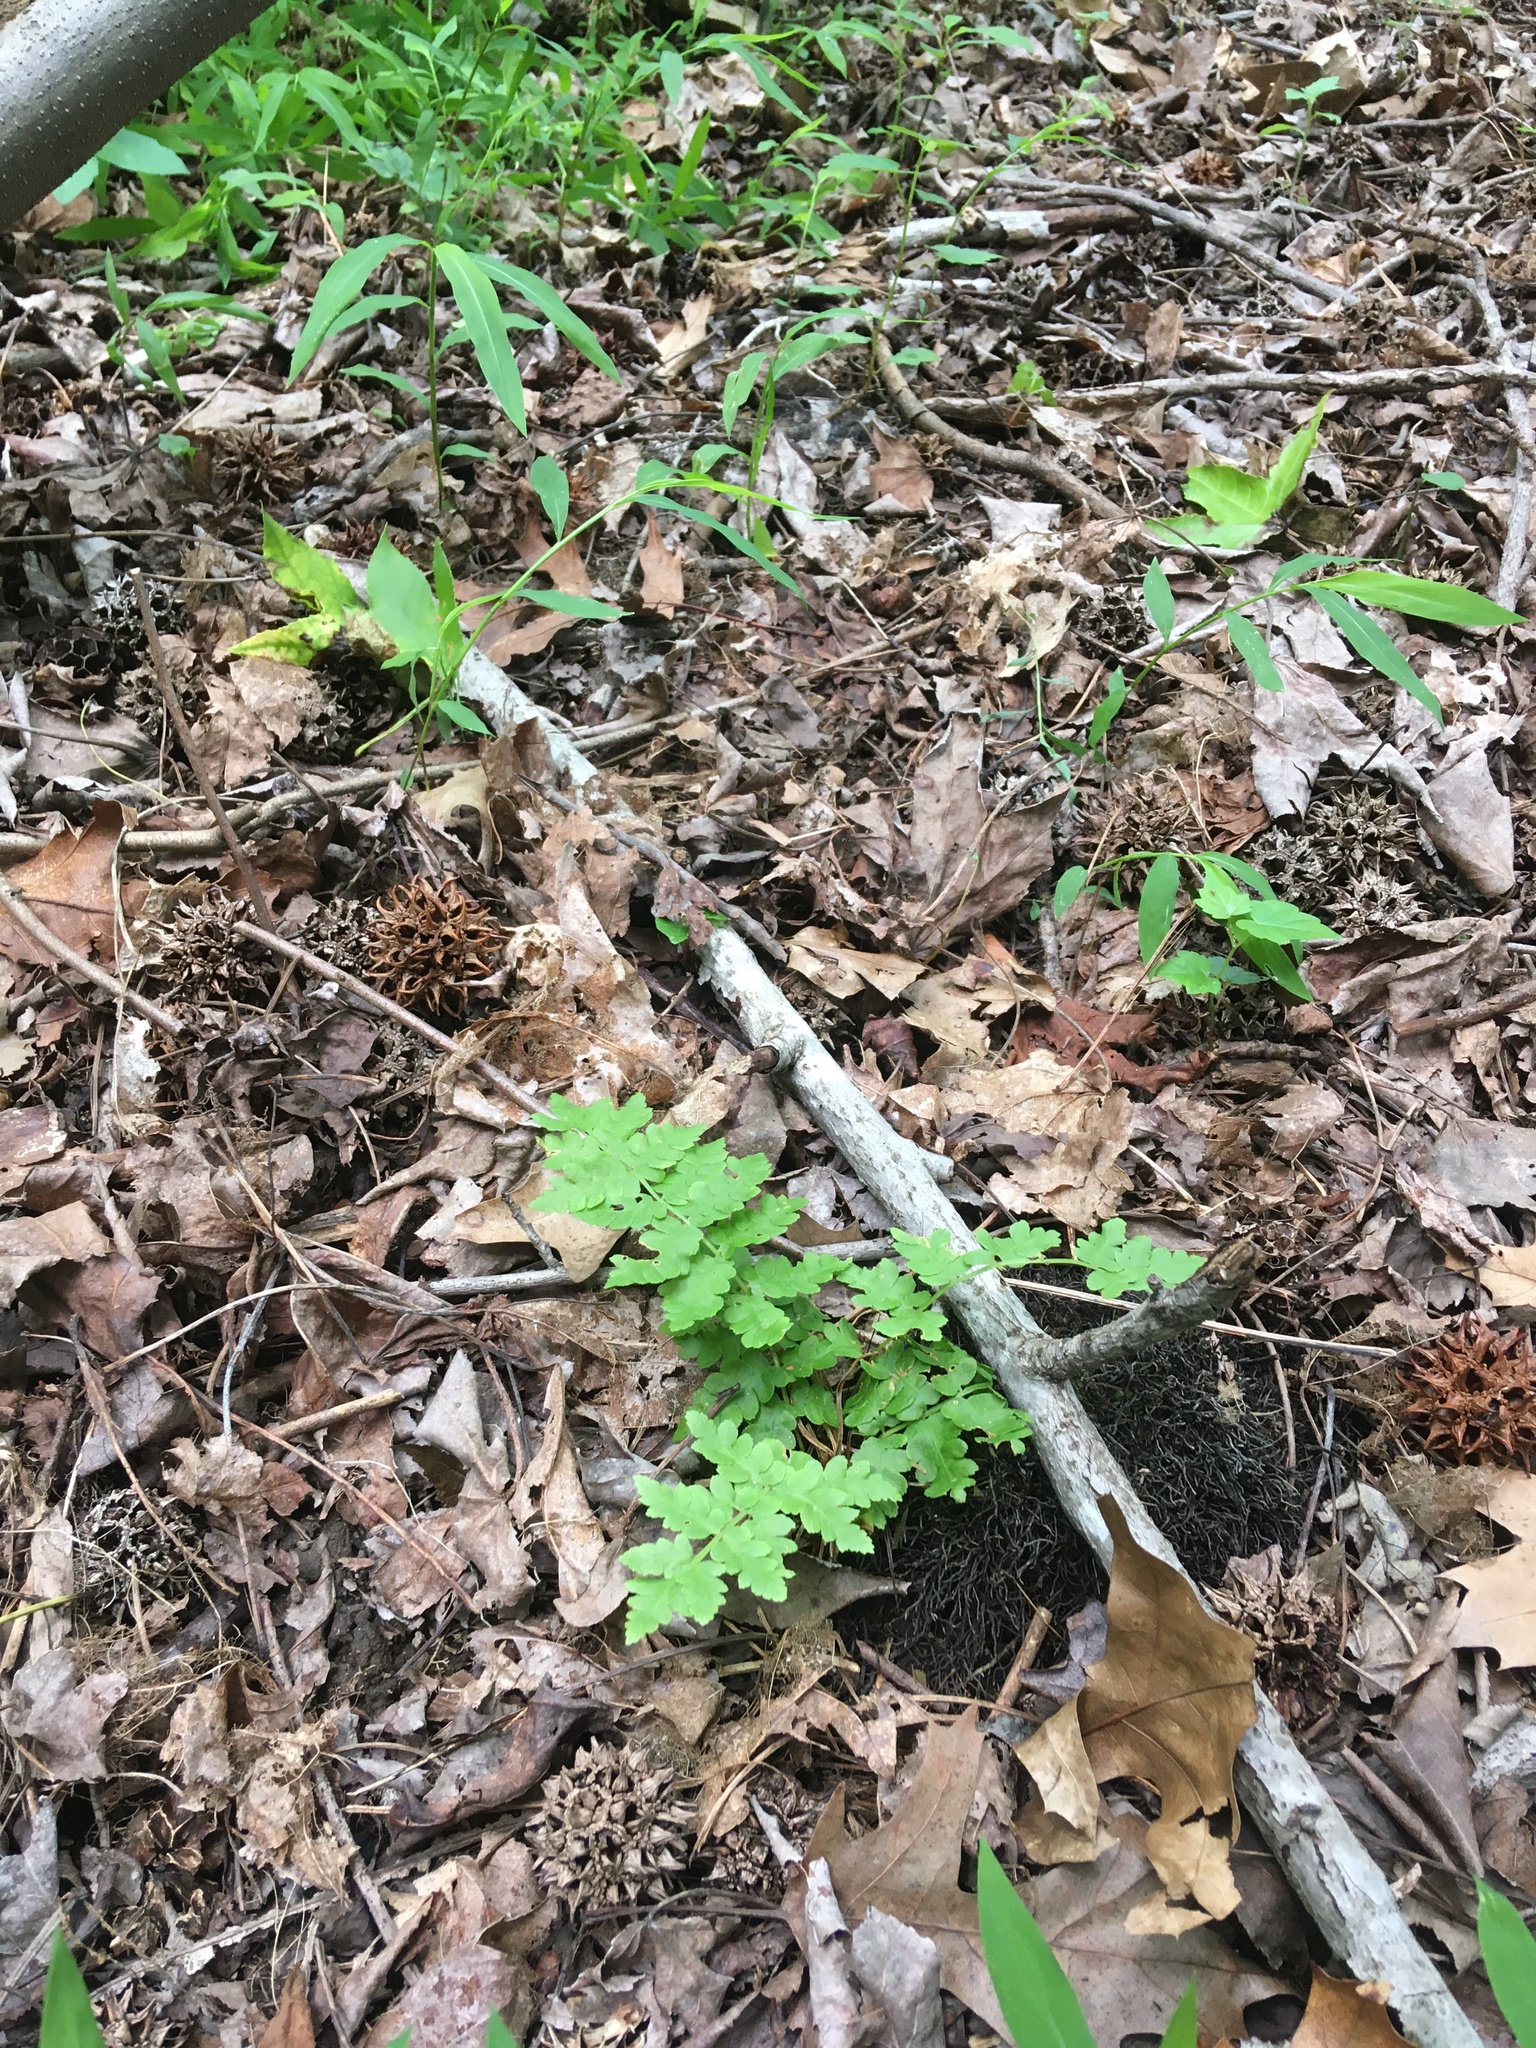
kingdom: Plantae
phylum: Tracheophyta
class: Polypodiopsida
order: Osmundales
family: Osmundaceae
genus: Osmundastrum
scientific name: Osmundastrum cinnamomeum
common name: Cinnamon fern
